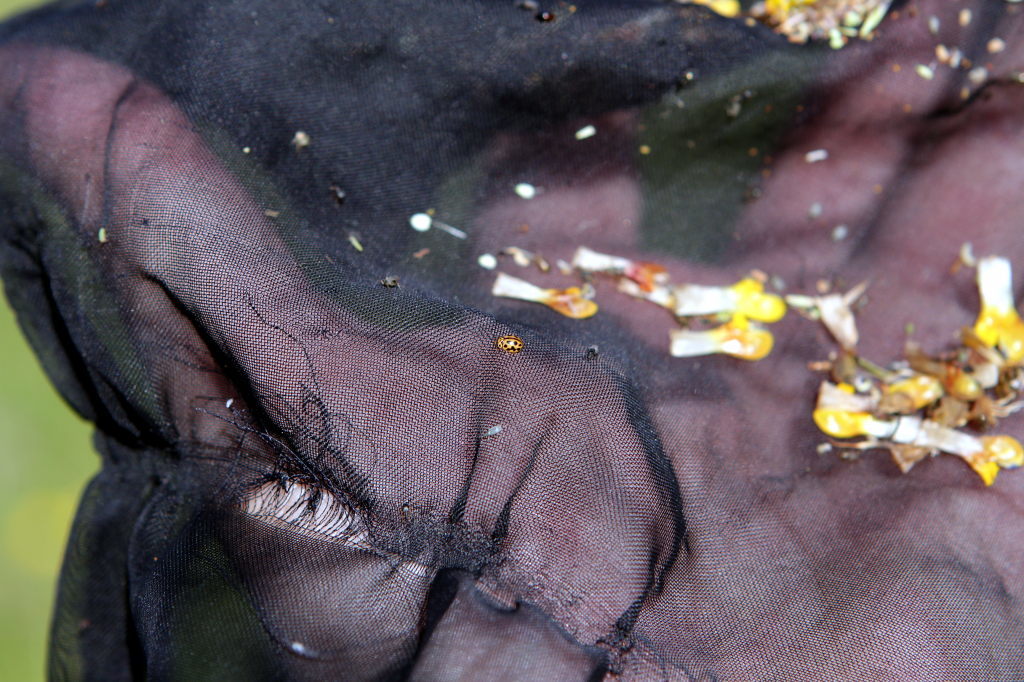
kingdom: Animalia
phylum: Arthropoda
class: Insecta
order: Coleoptera
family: Coccinellidae
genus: Tytthaspis
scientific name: Tytthaspis sedecimpunctata
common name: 16-spot ladybird
